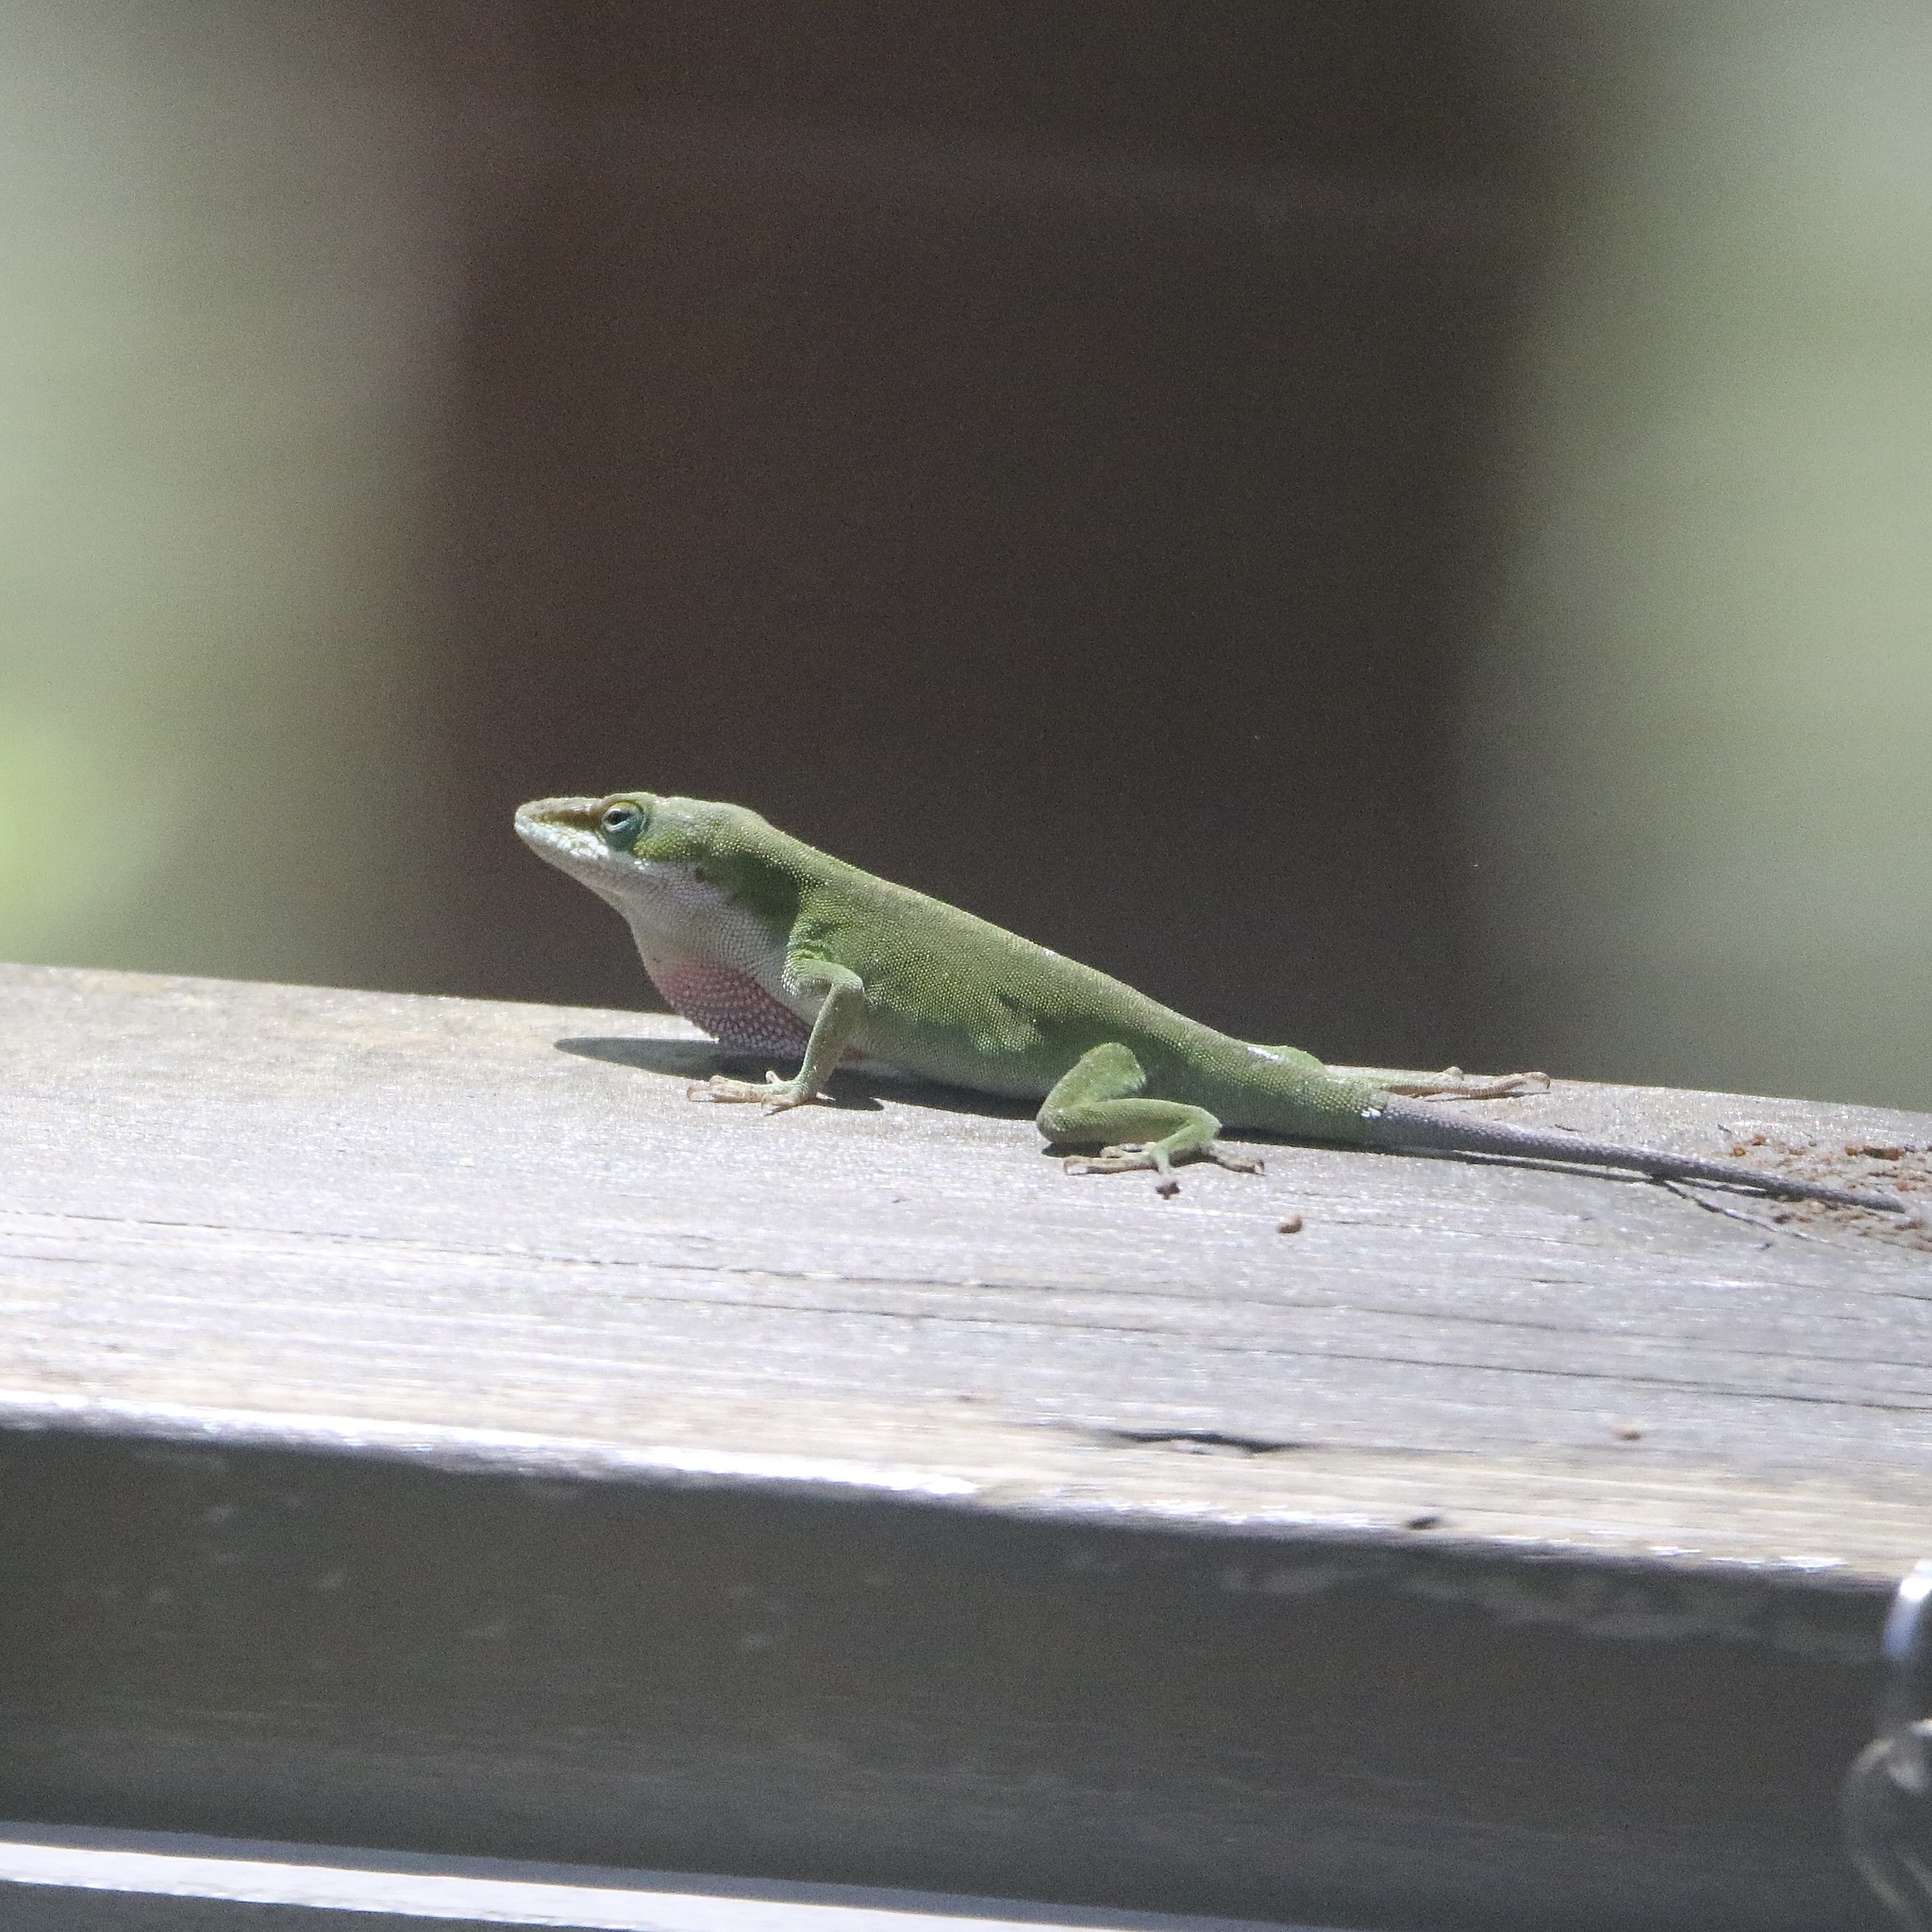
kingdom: Animalia
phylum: Chordata
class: Squamata
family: Dactyloidae
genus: Anolis
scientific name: Anolis carolinensis
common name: Green anole
